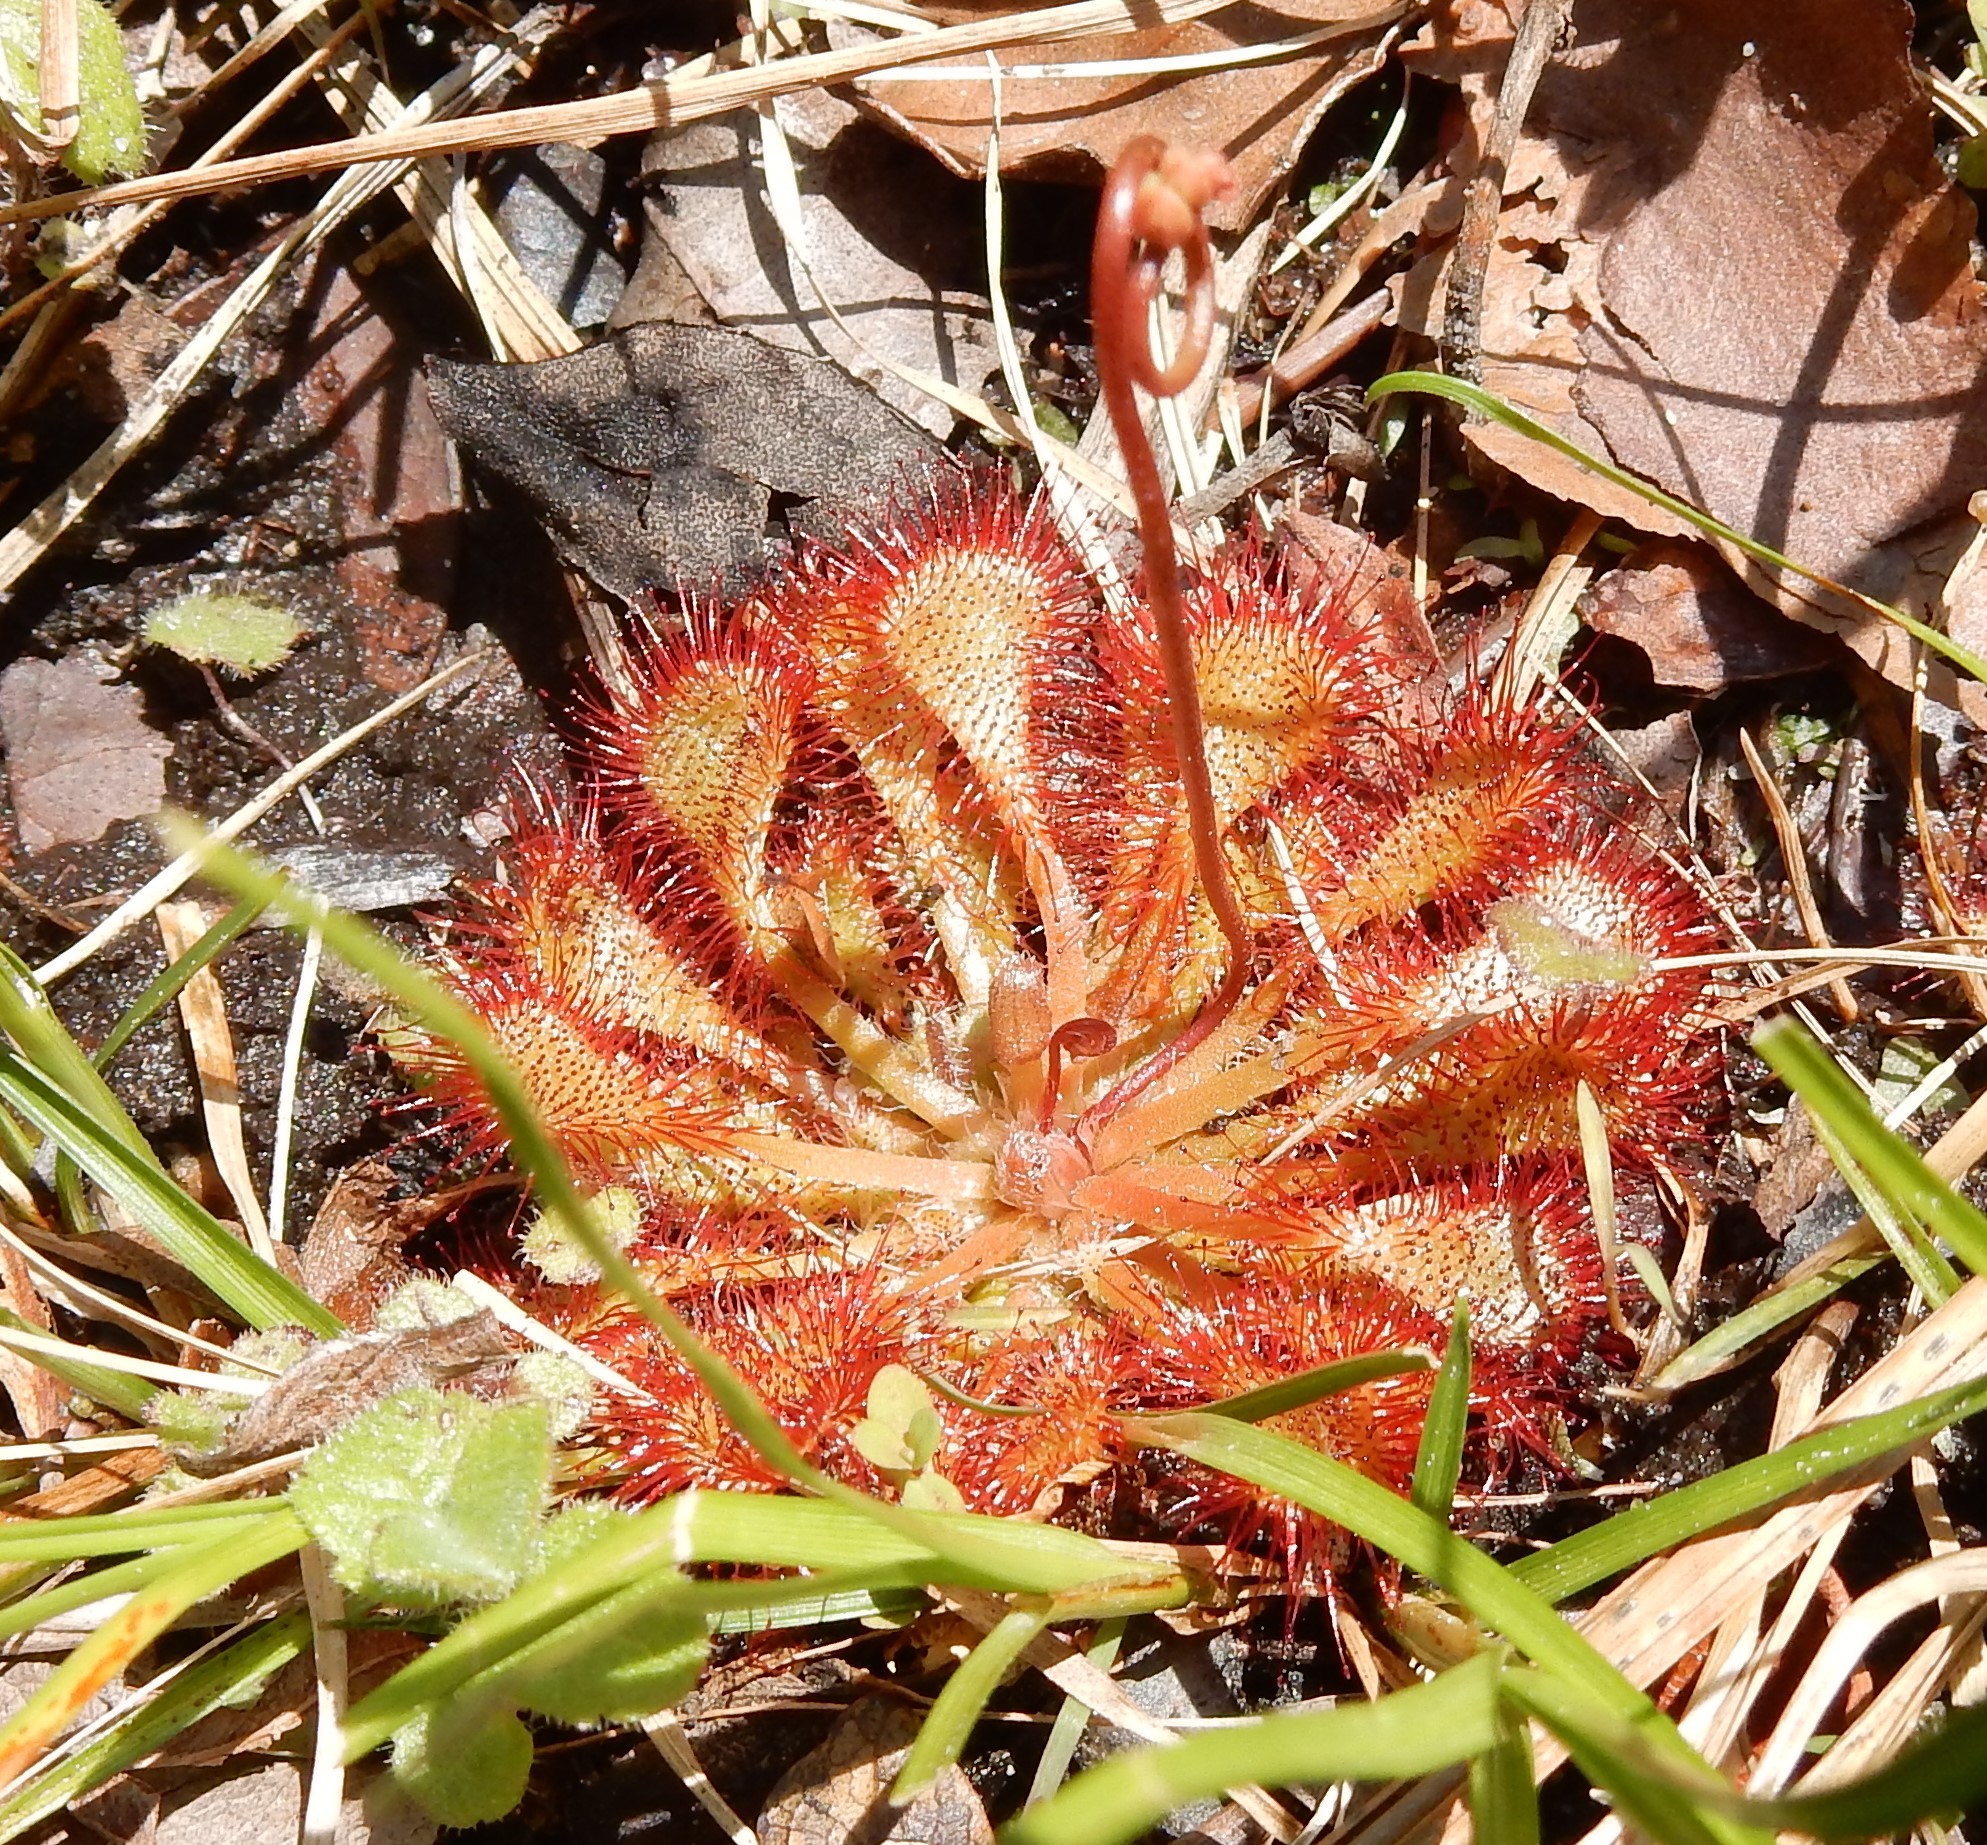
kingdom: Plantae
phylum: Tracheophyta
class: Magnoliopsida
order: Caryophyllales
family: Droseraceae
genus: Drosera
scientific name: Drosera capillaris
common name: Pink sundew
